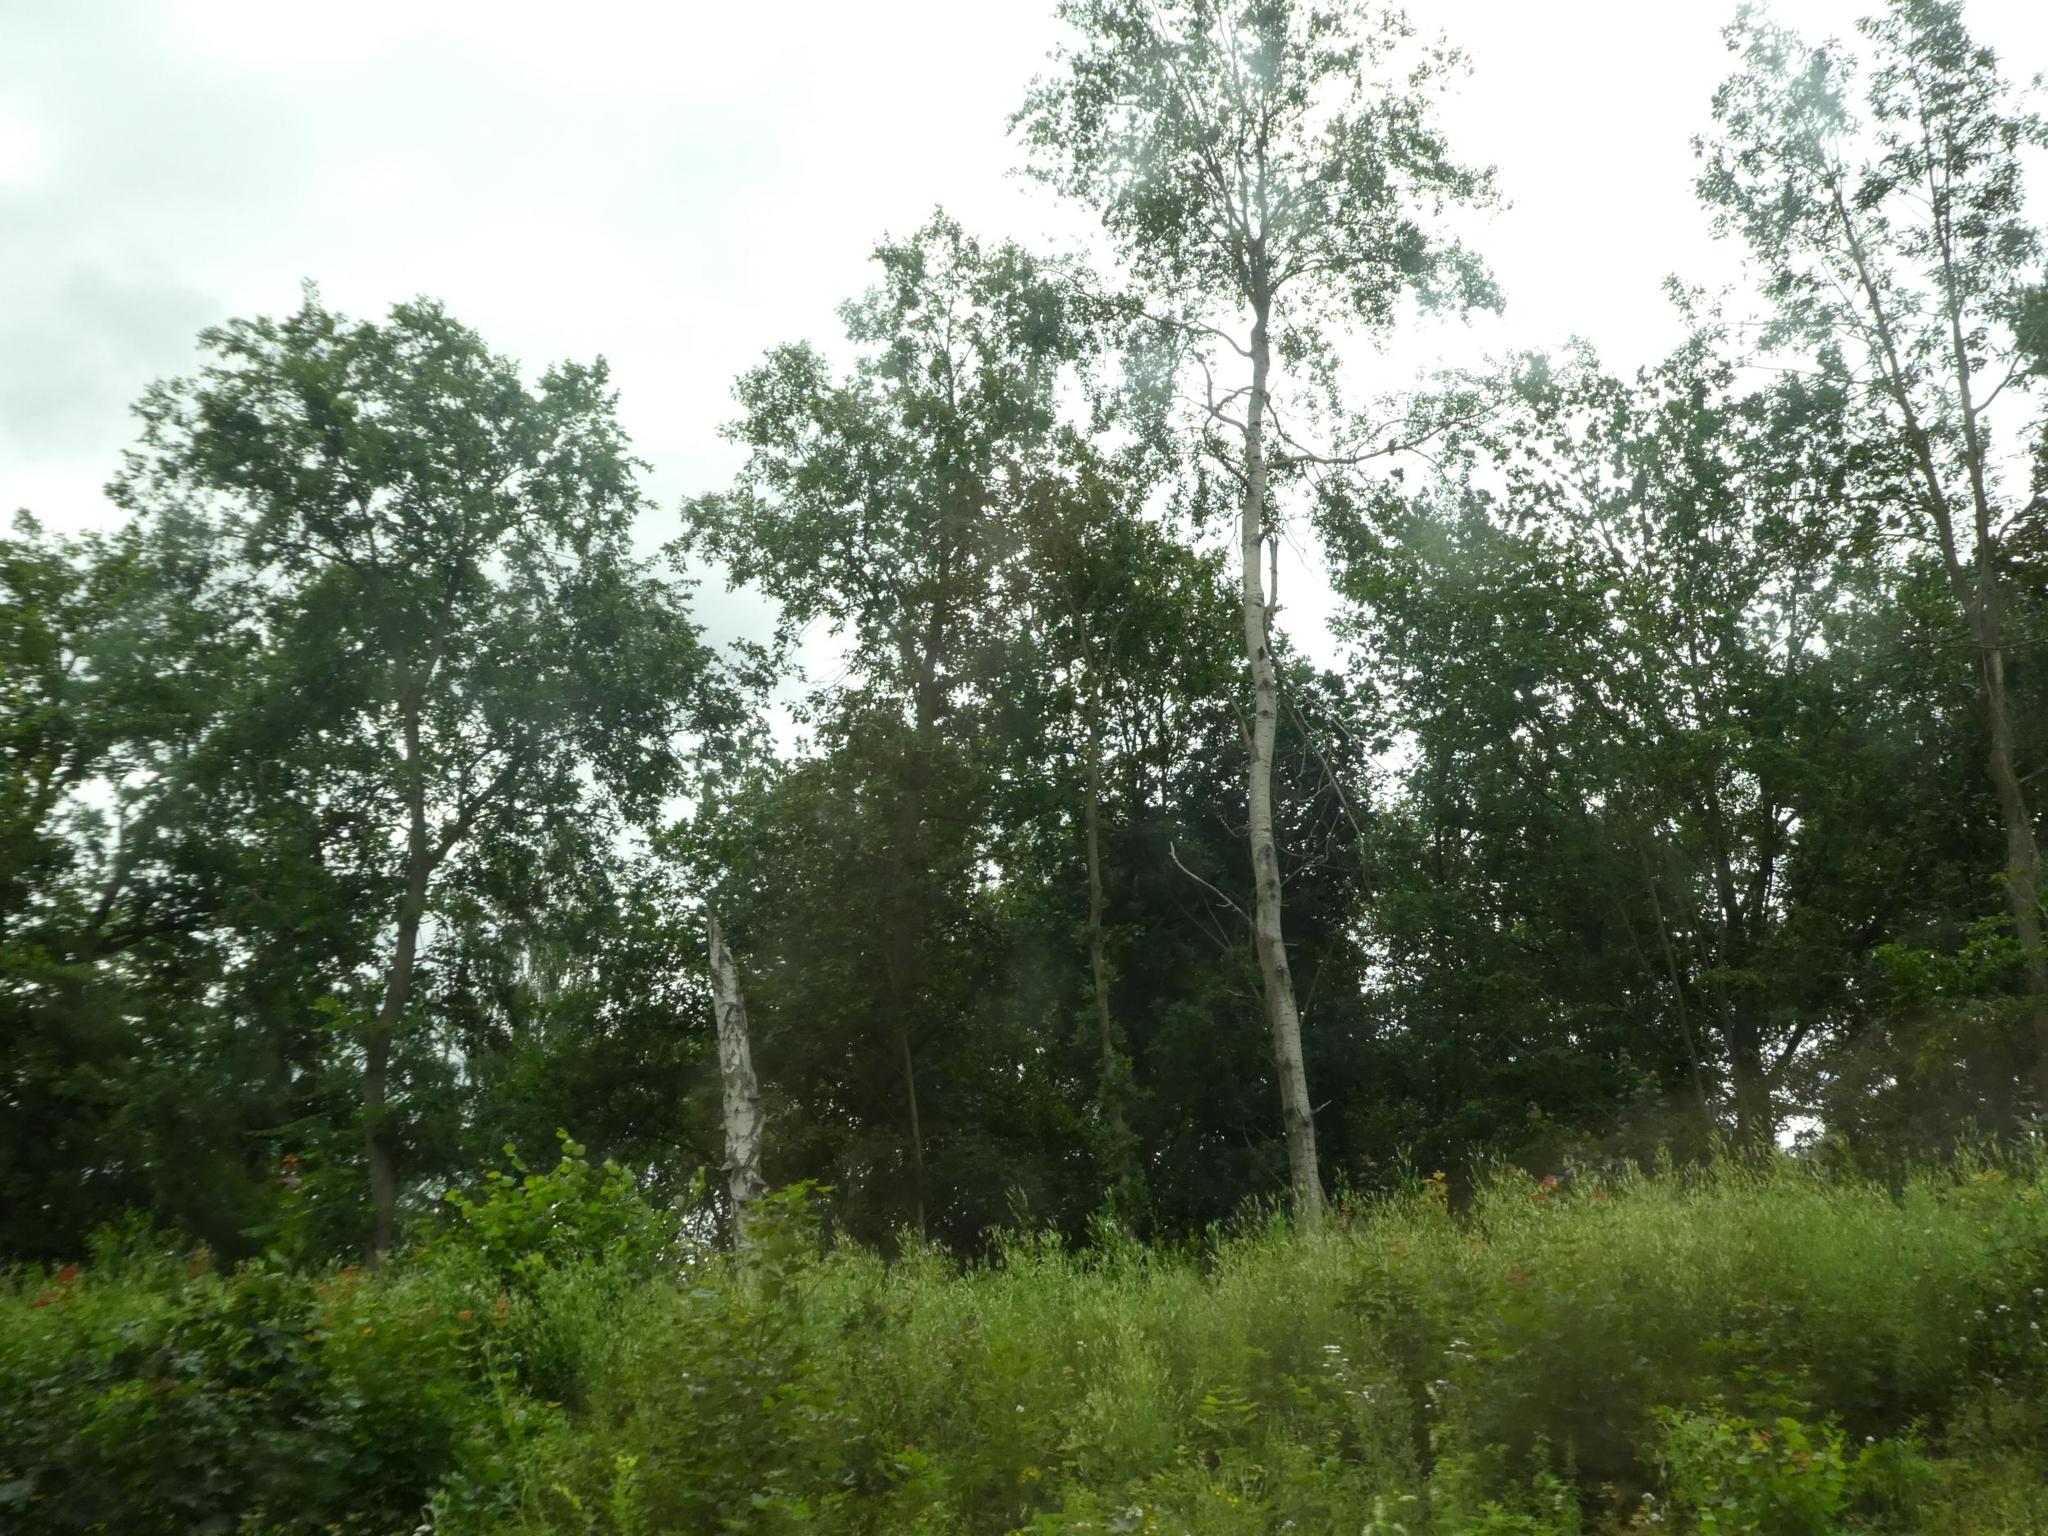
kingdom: Plantae
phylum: Tracheophyta
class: Magnoliopsida
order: Fagales
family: Betulaceae
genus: Betula
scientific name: Betula pendula
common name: Silver birch
